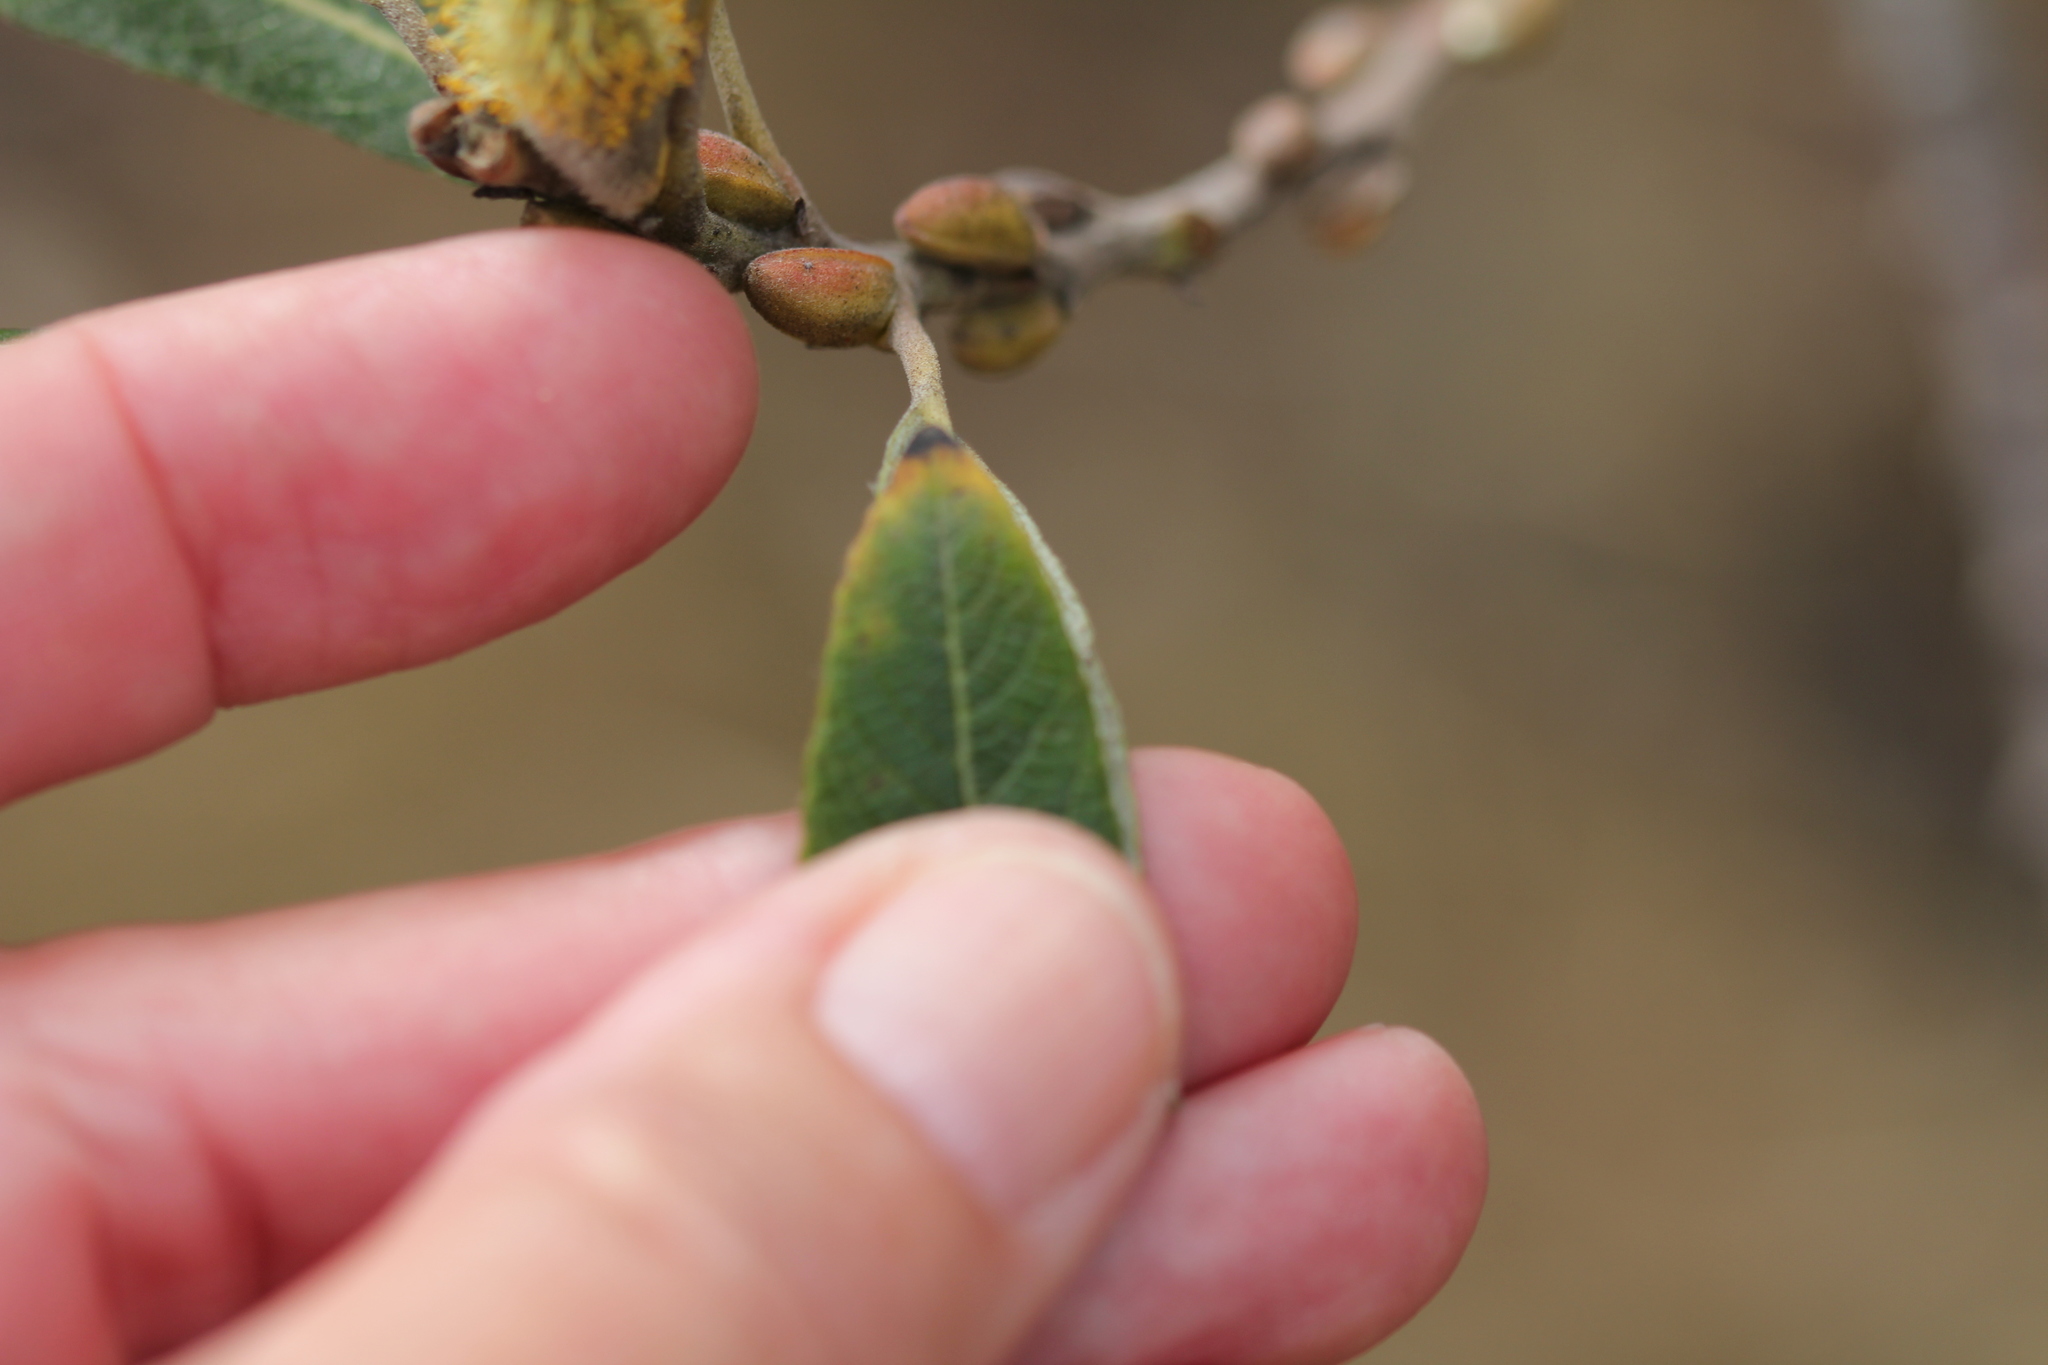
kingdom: Plantae
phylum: Tracheophyta
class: Magnoliopsida
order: Malpighiales
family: Salicaceae
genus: Salix
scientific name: Salix lasiolepis
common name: Arroyo willow
